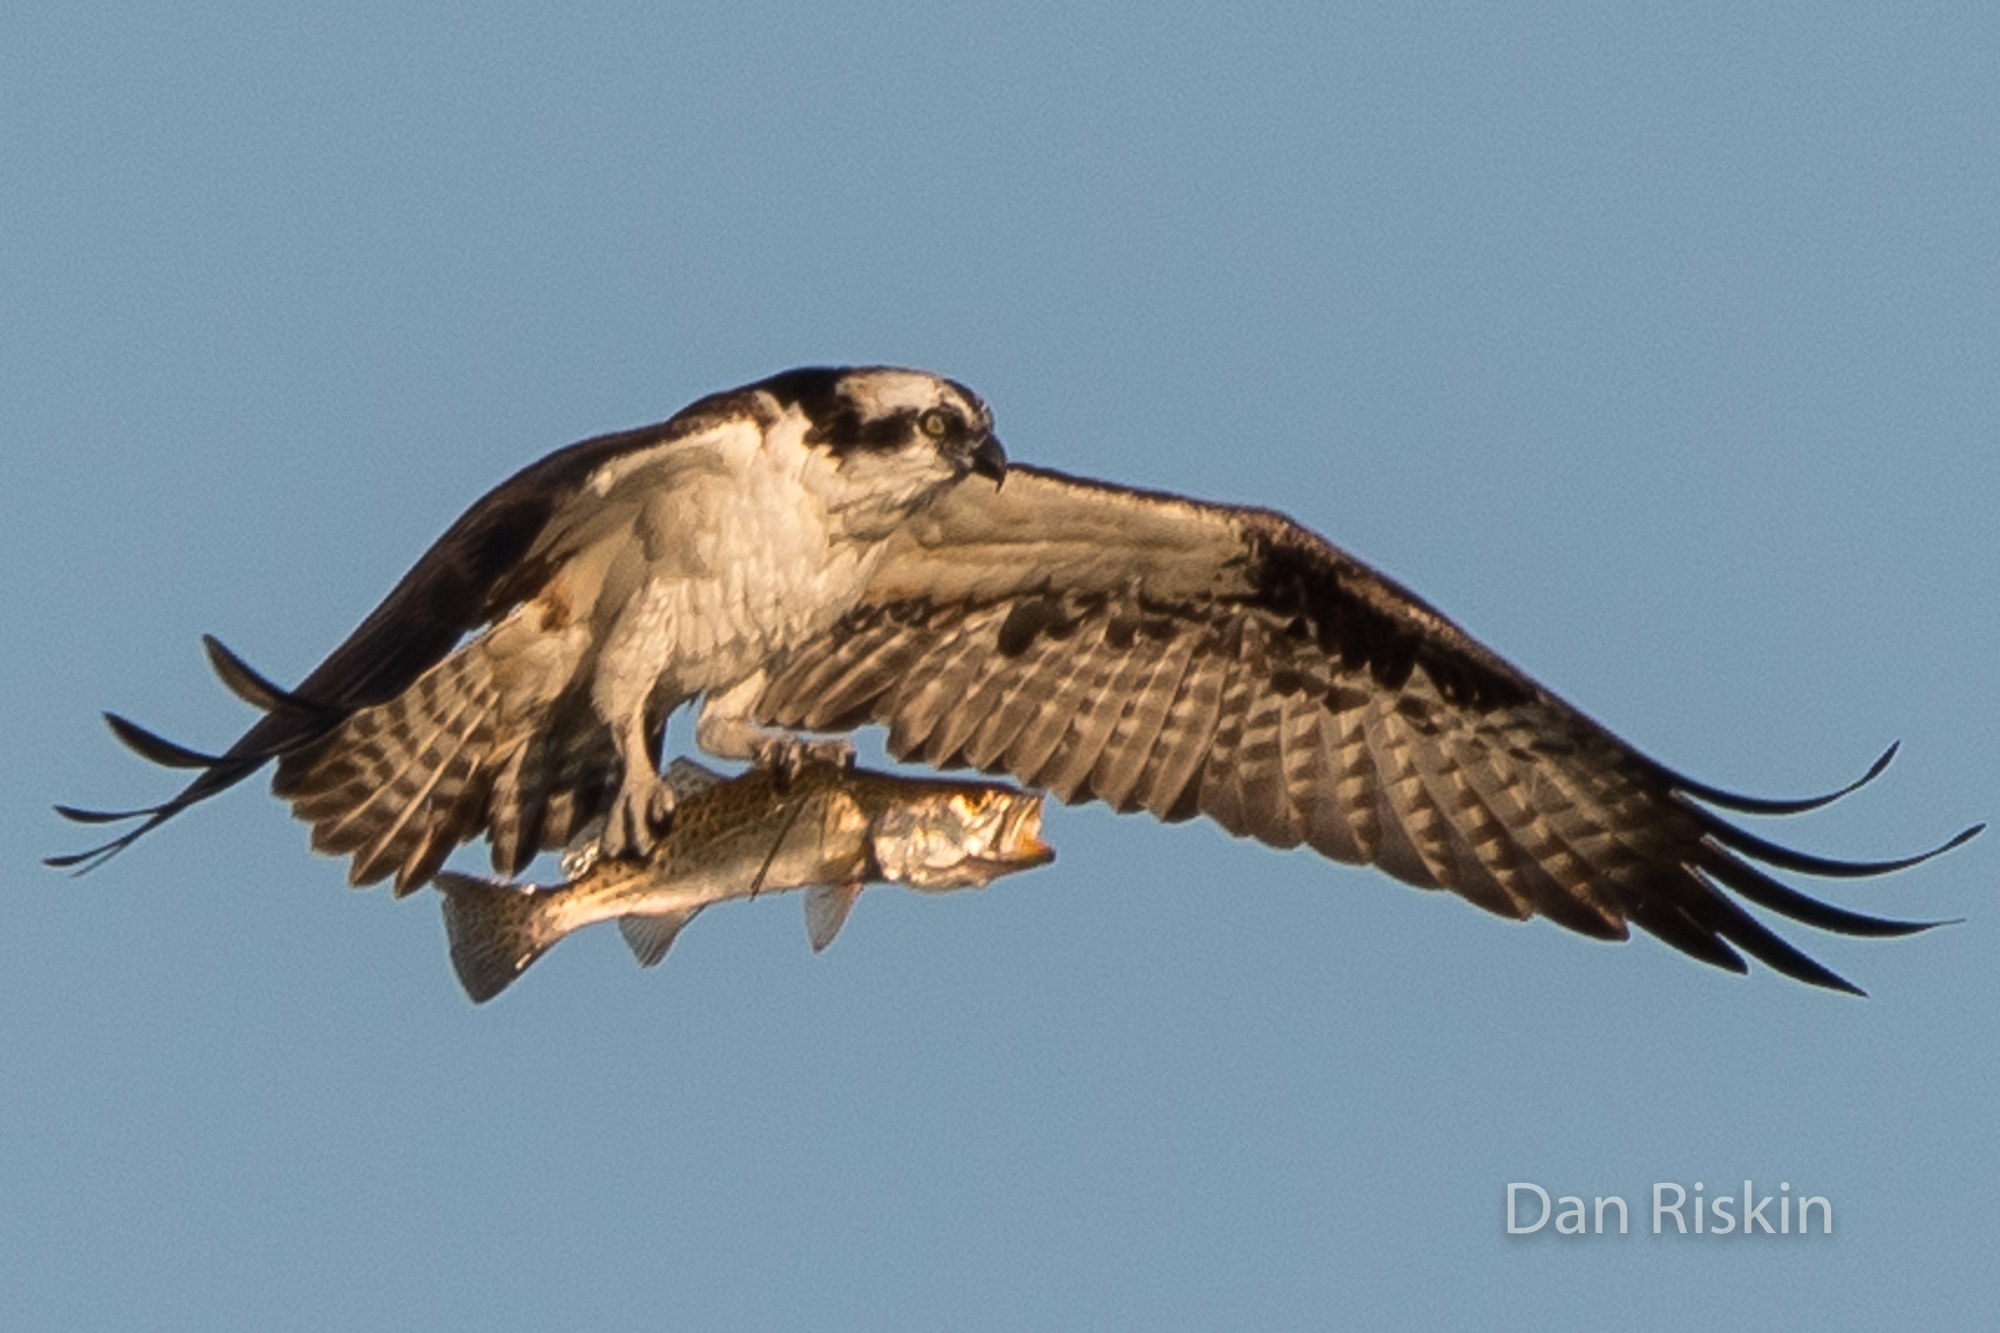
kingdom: Animalia
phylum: Chordata
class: Aves
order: Accipitriformes
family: Pandionidae
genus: Pandion
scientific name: Pandion haliaetus
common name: Osprey
